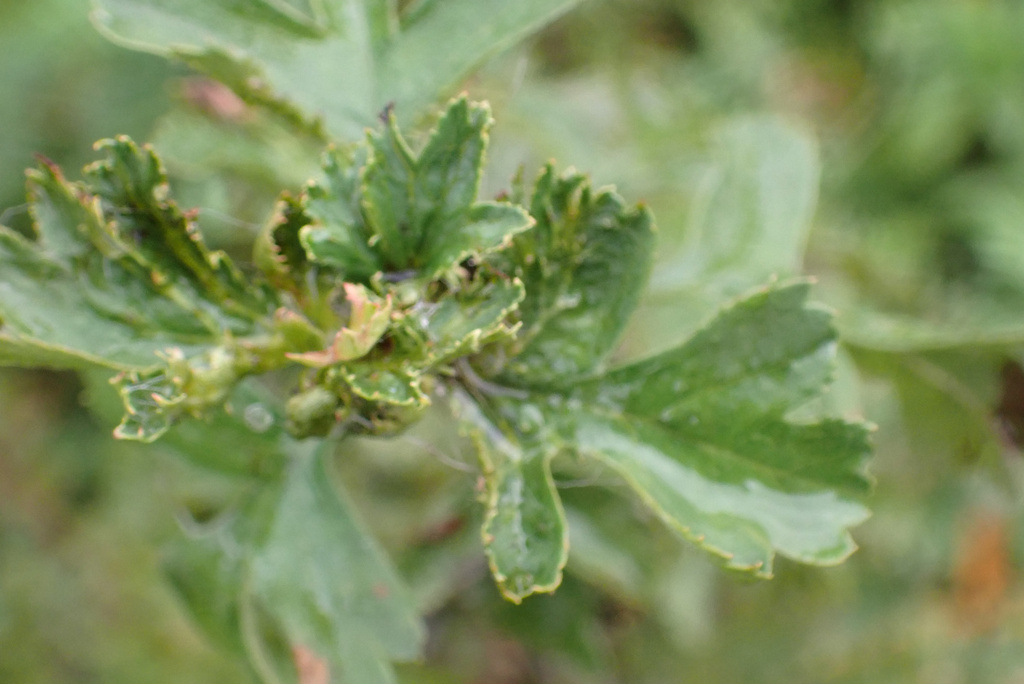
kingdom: Animalia
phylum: Arthropoda
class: Insecta
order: Diptera
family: Cecidomyiidae
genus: Dasineura
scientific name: Dasineura crataegi
